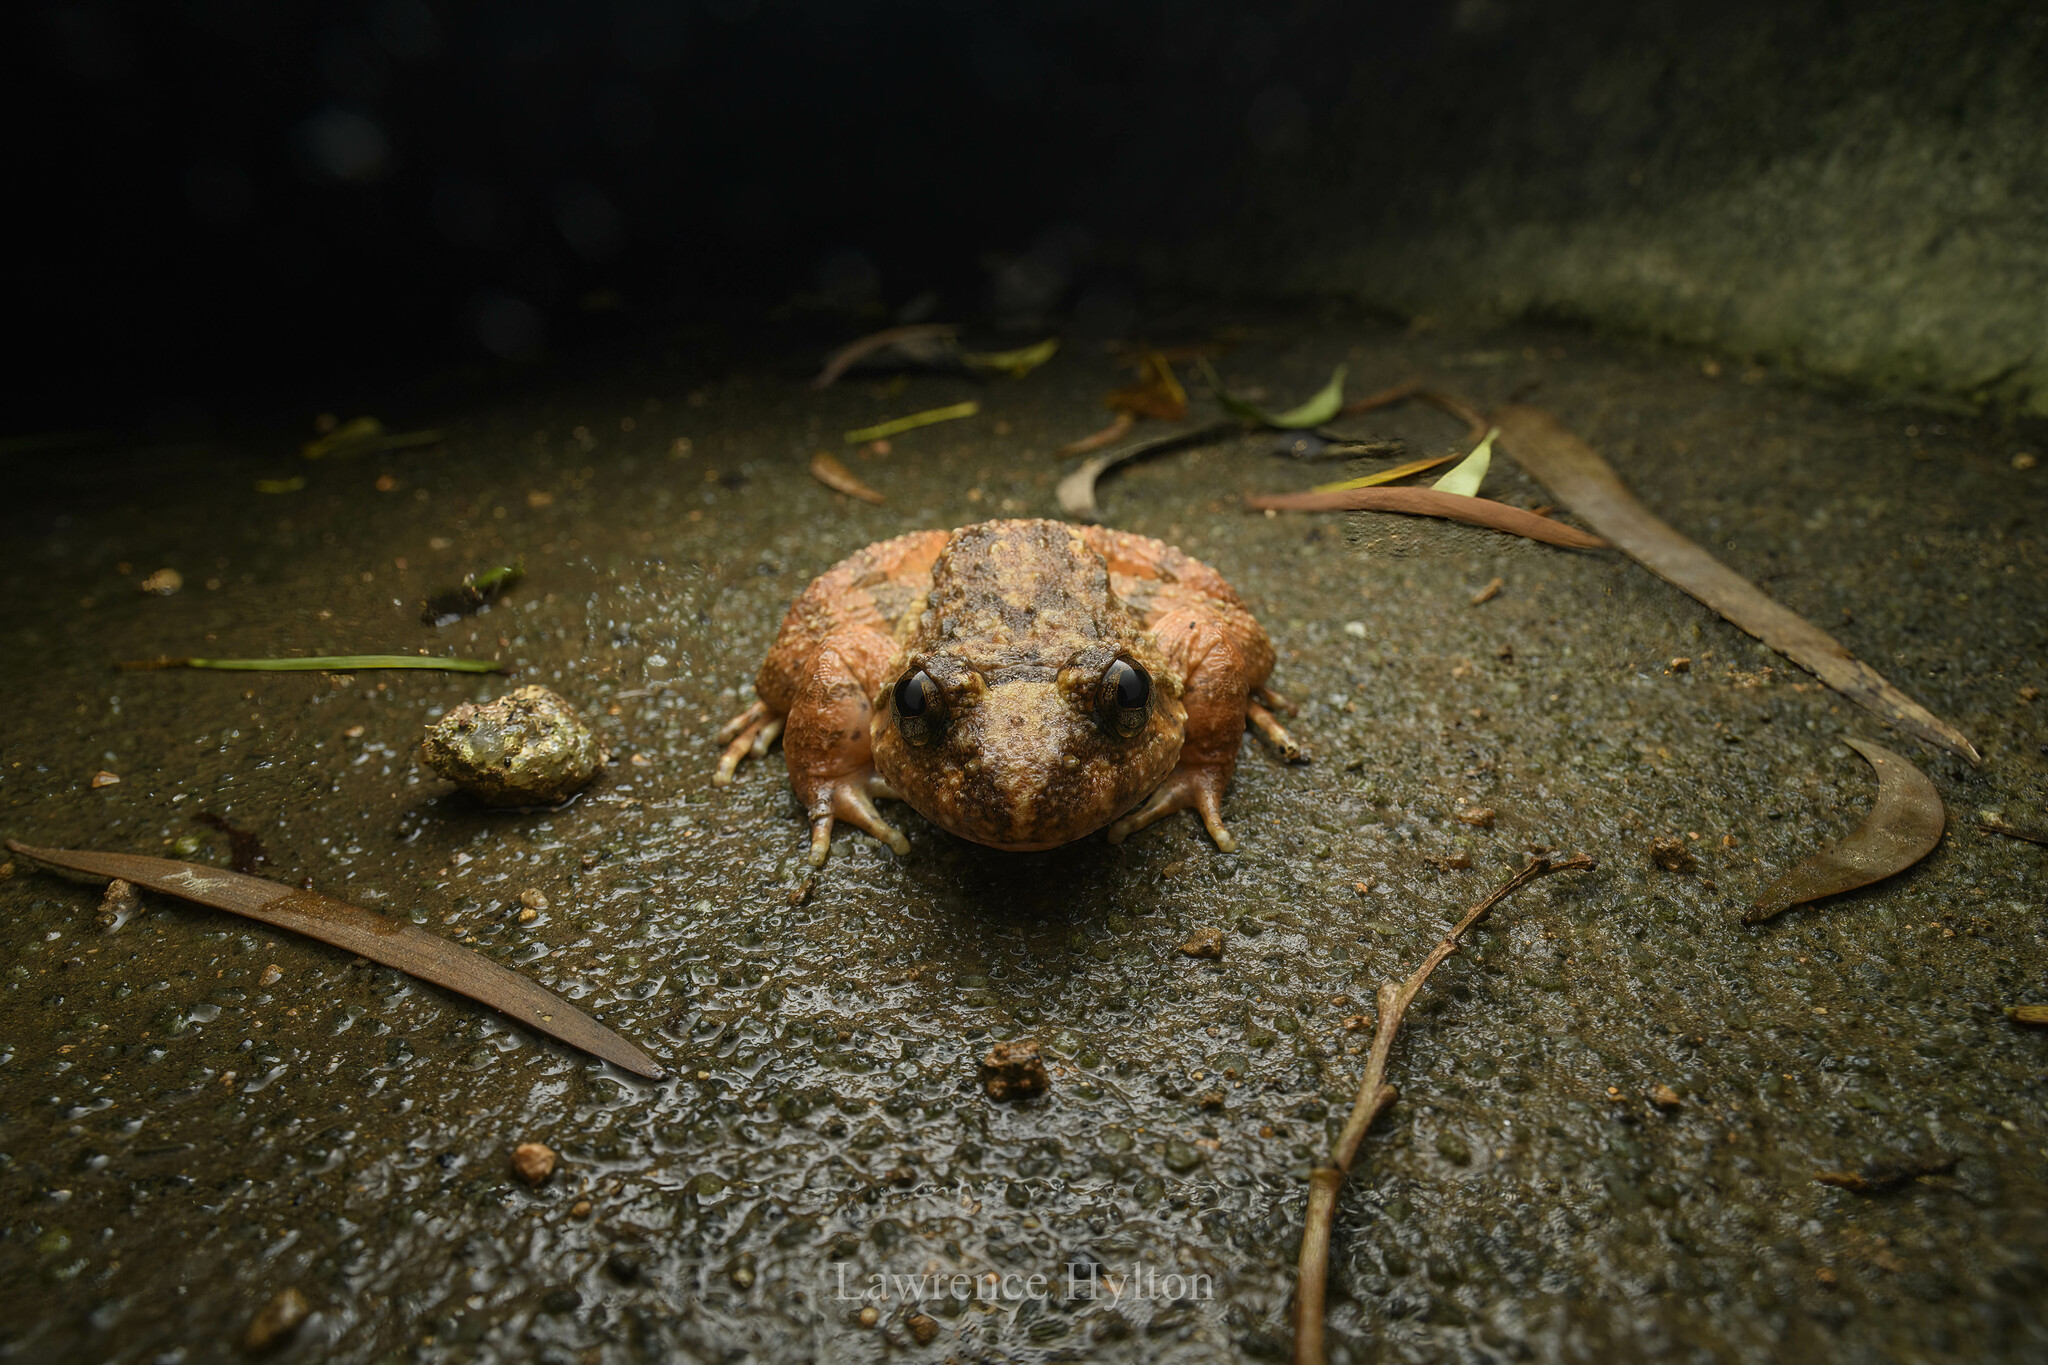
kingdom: Animalia
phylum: Chordata
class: Amphibia
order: Anura
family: Dicroglossidae
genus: Quasipaa
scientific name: Quasipaa exilispinosa
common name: Hong kong paa frog
